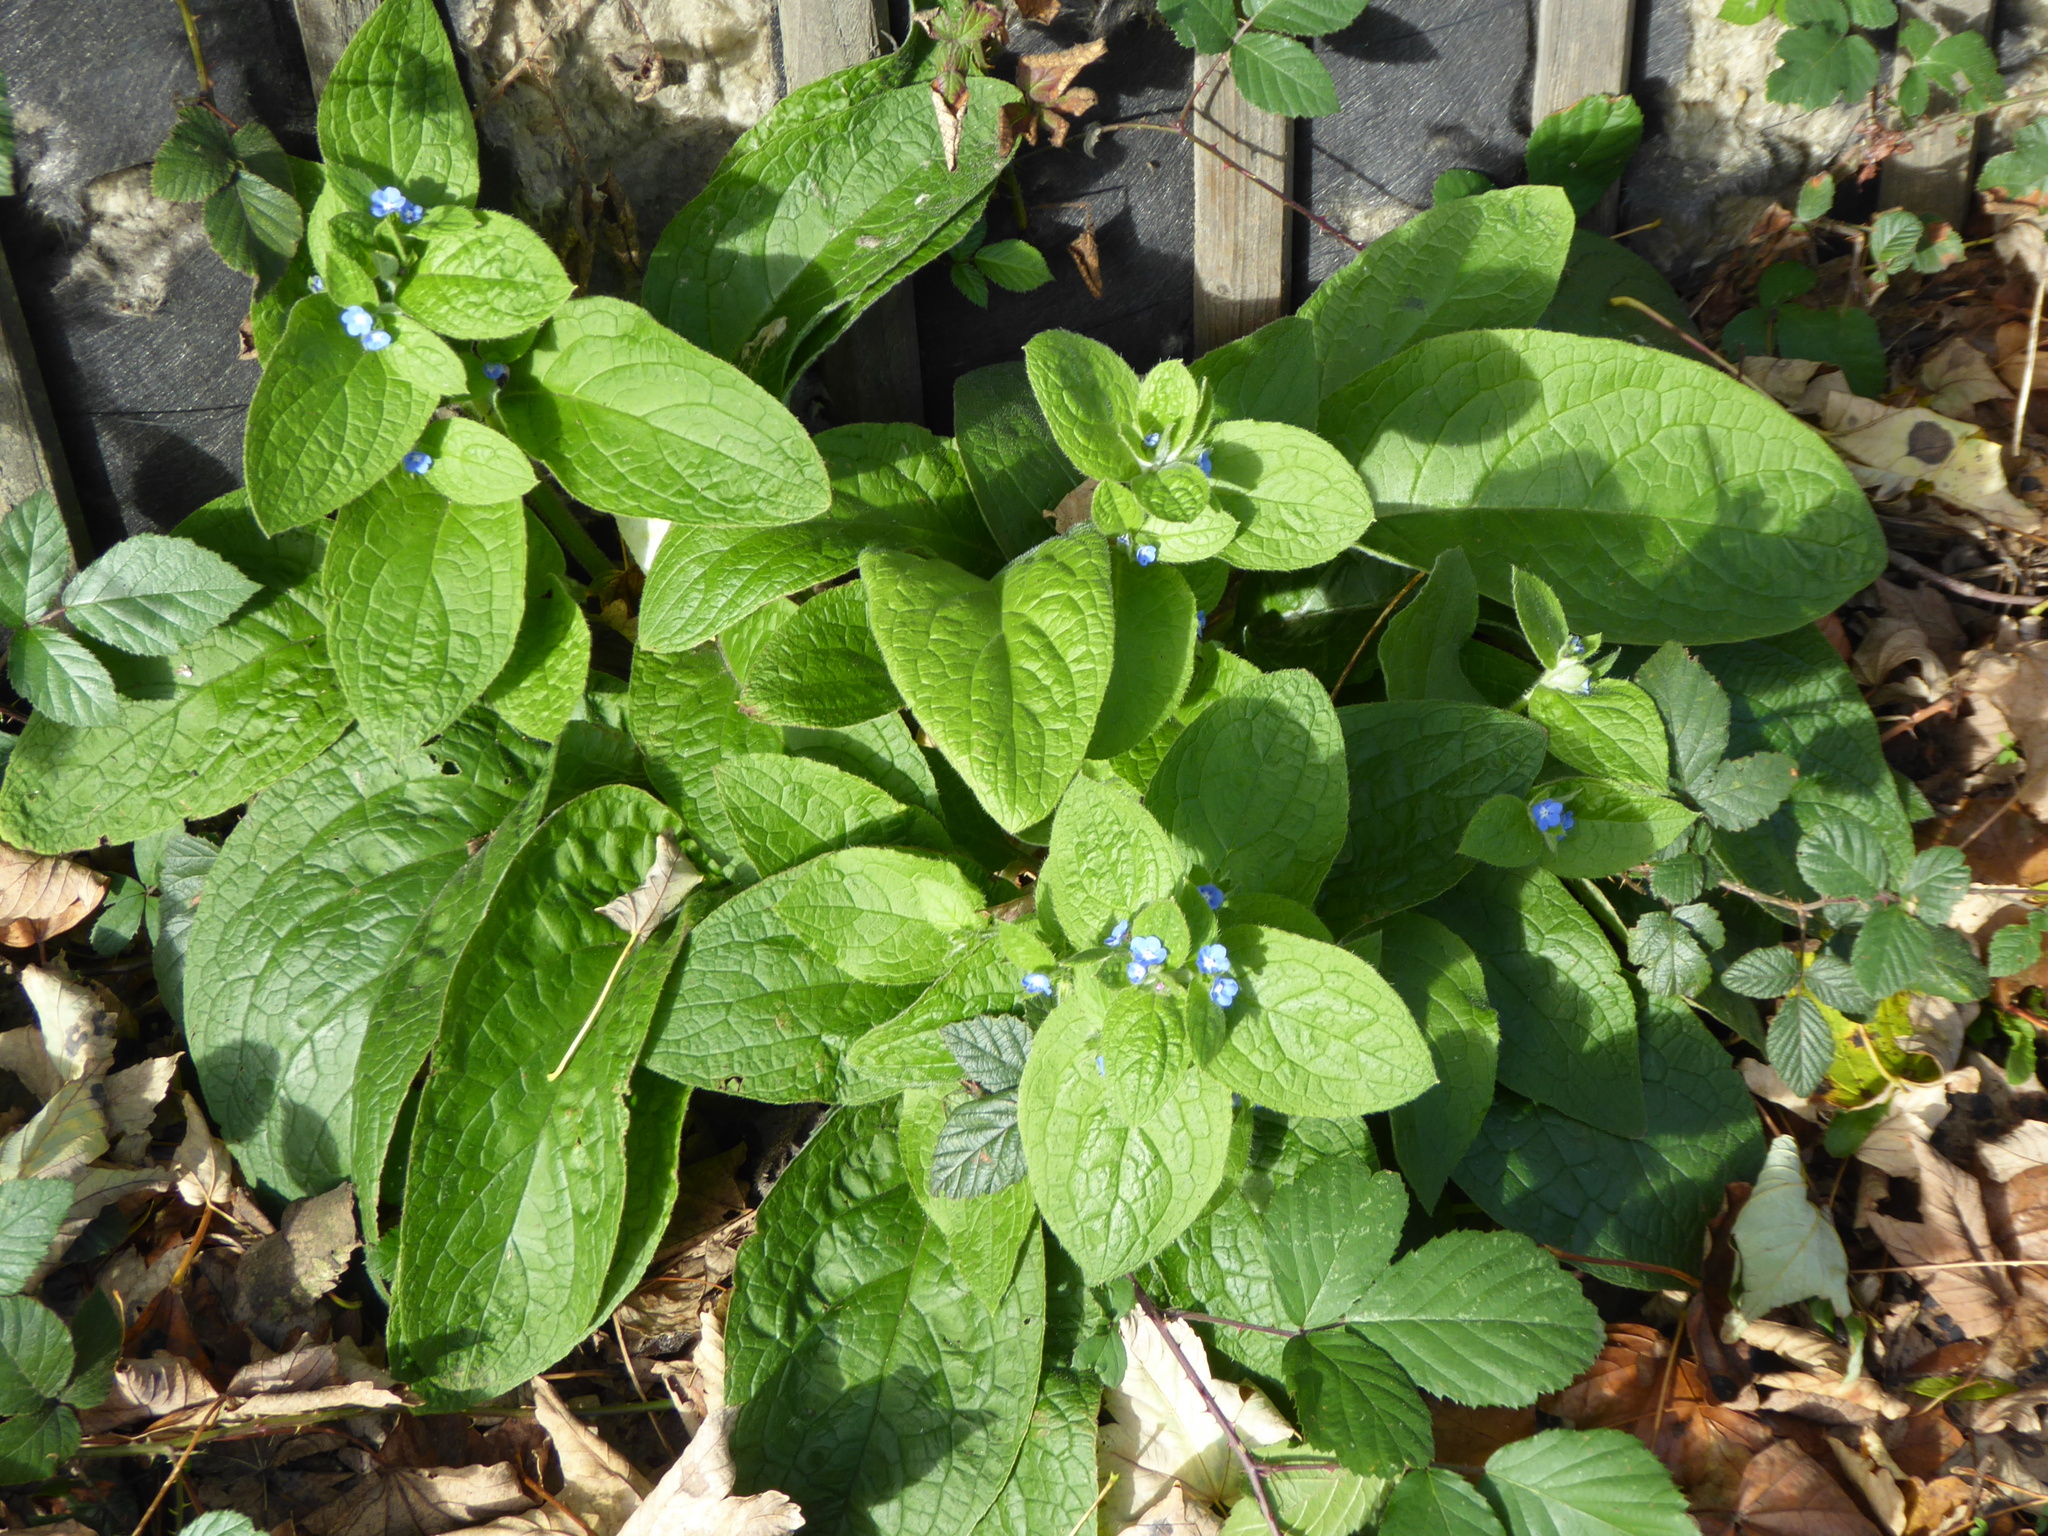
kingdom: Plantae
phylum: Tracheophyta
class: Magnoliopsida
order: Boraginales
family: Boraginaceae
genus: Pentaglottis
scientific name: Pentaglottis sempervirens
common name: Green alkanet
